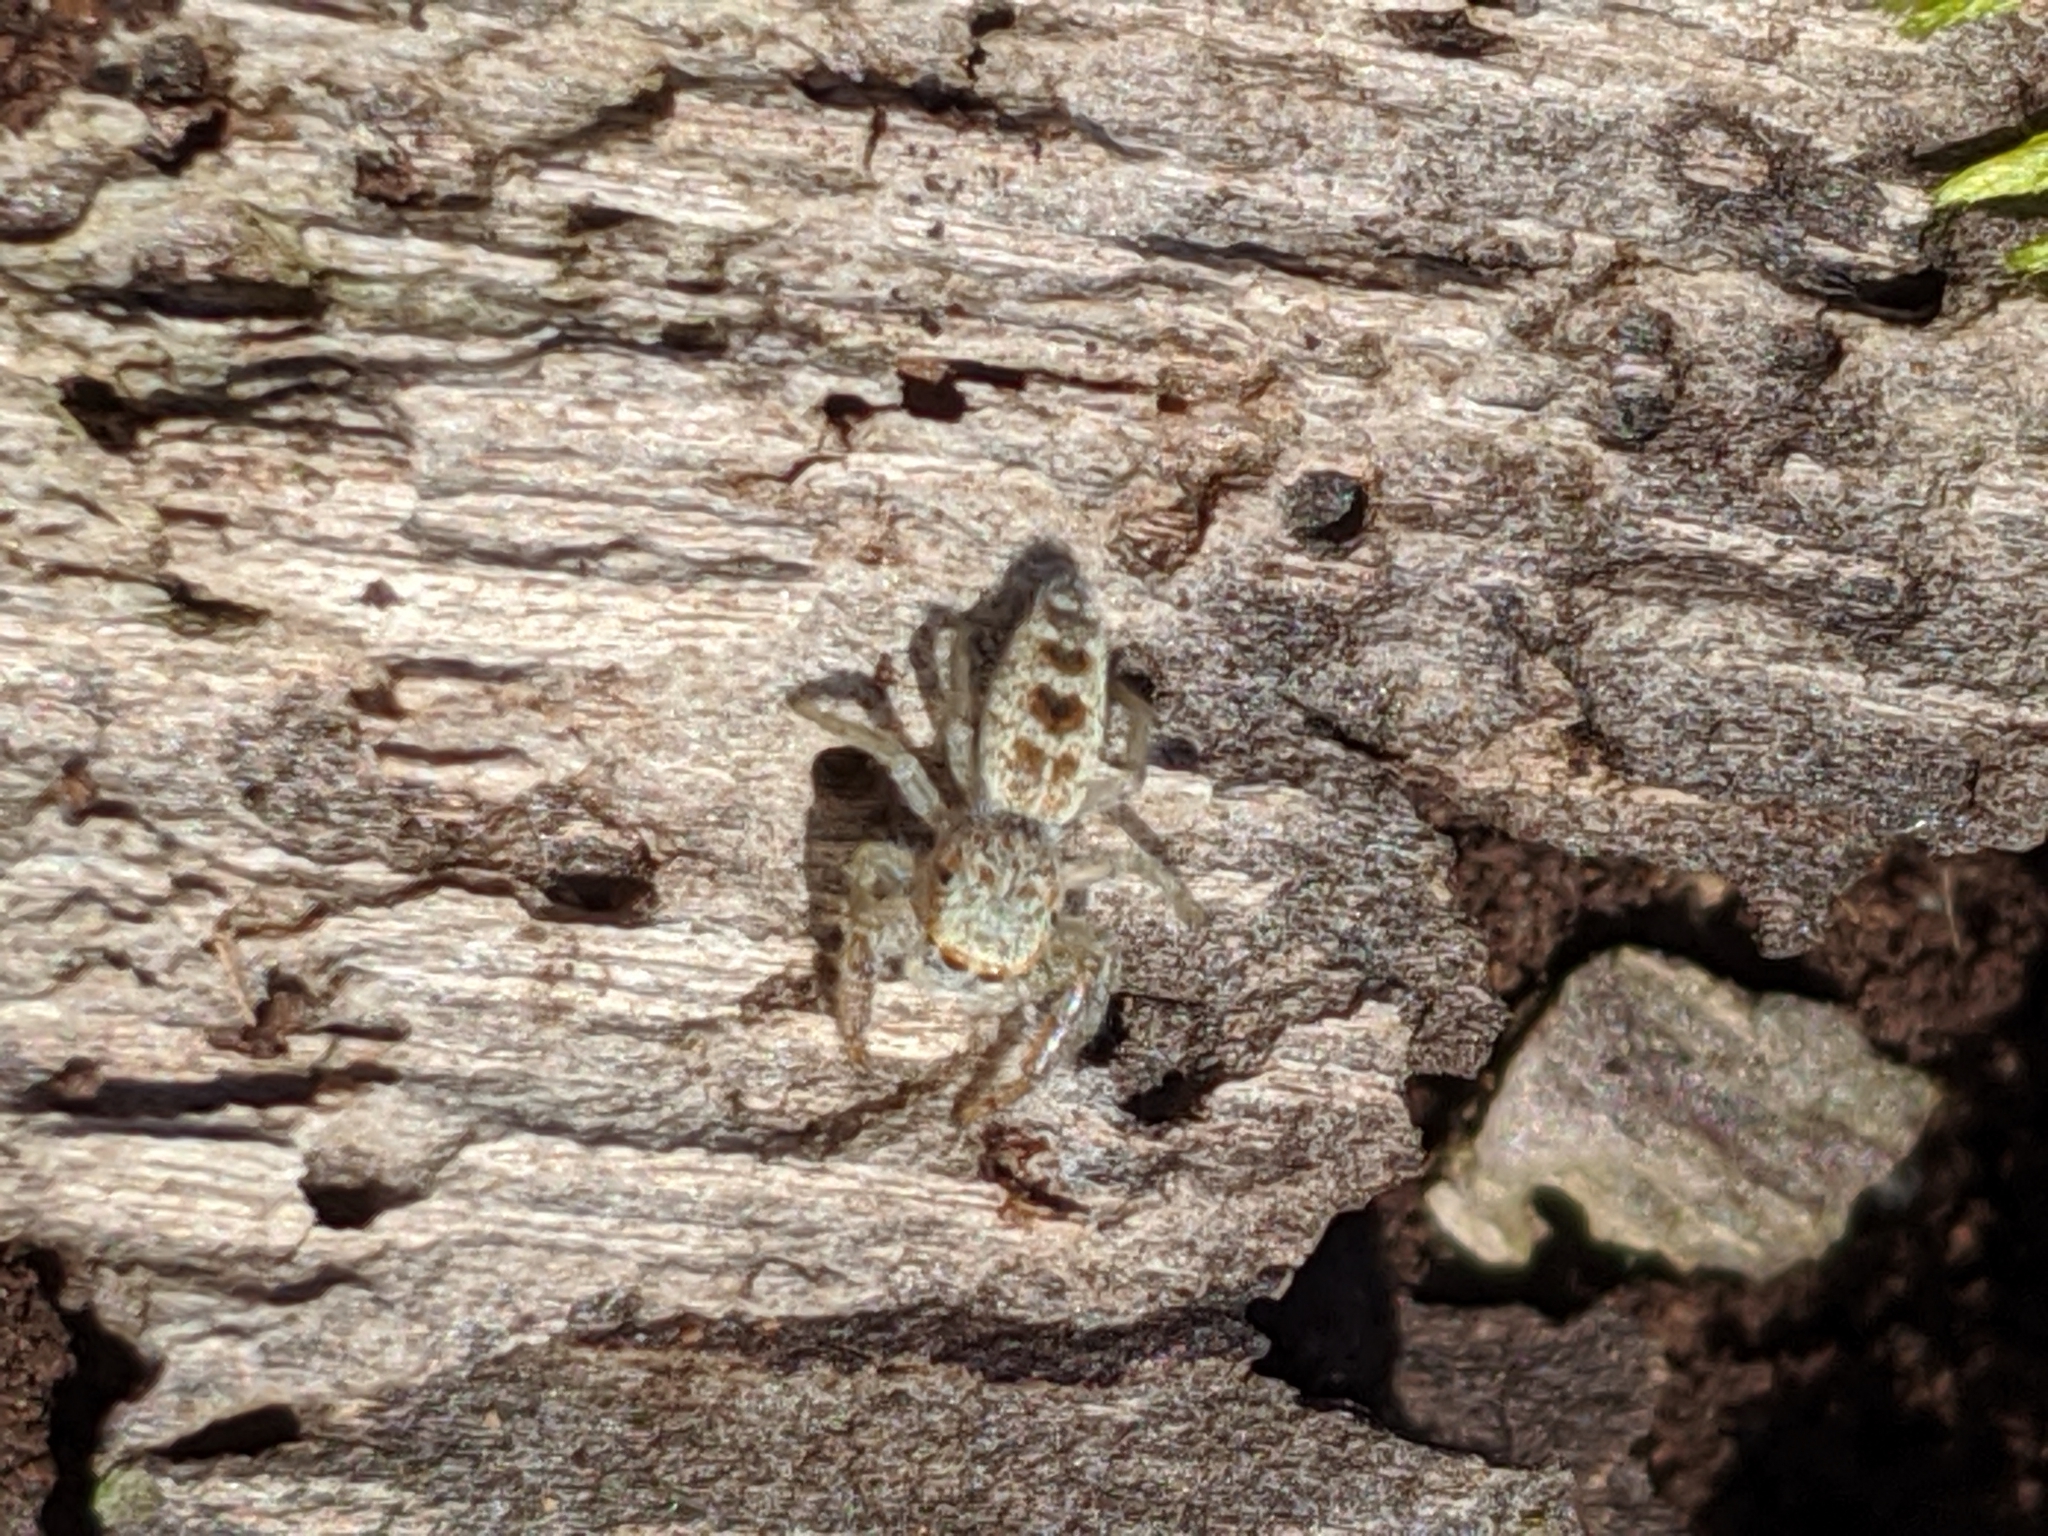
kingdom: Animalia
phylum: Arthropoda
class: Arachnida
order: Araneae
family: Salticidae
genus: Hentzia
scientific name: Hentzia
